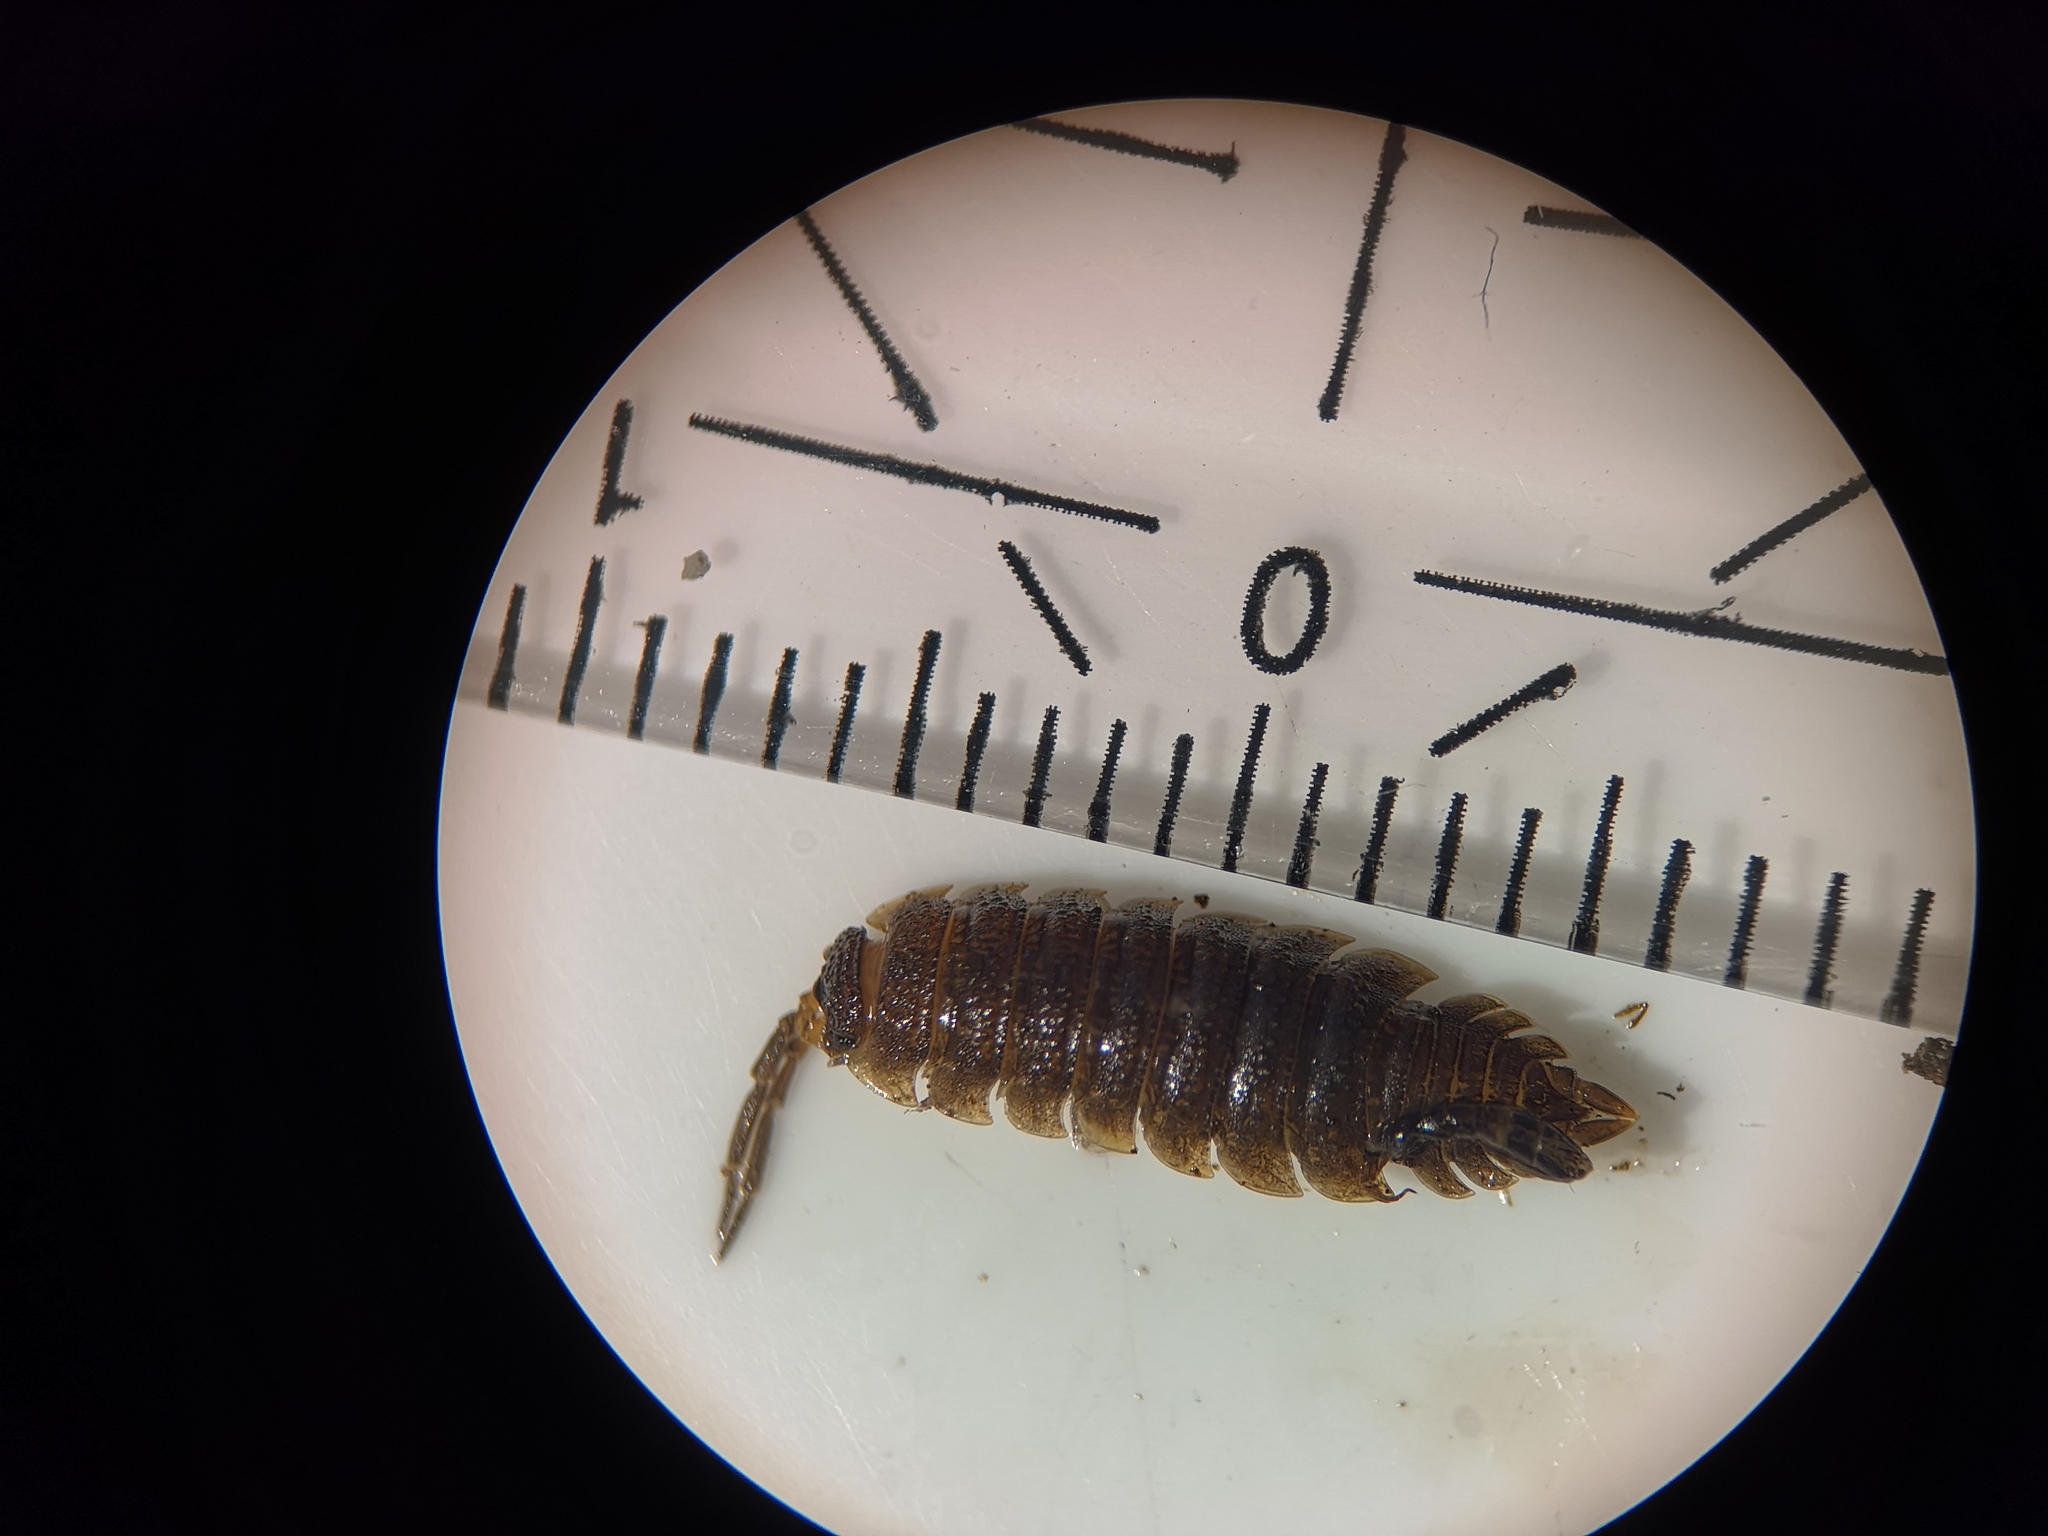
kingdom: Animalia
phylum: Arthropoda
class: Malacostraca
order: Isopoda
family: Porcellionidae
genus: Porcellio
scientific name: Porcellio scaber
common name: Common rough woodlouse
